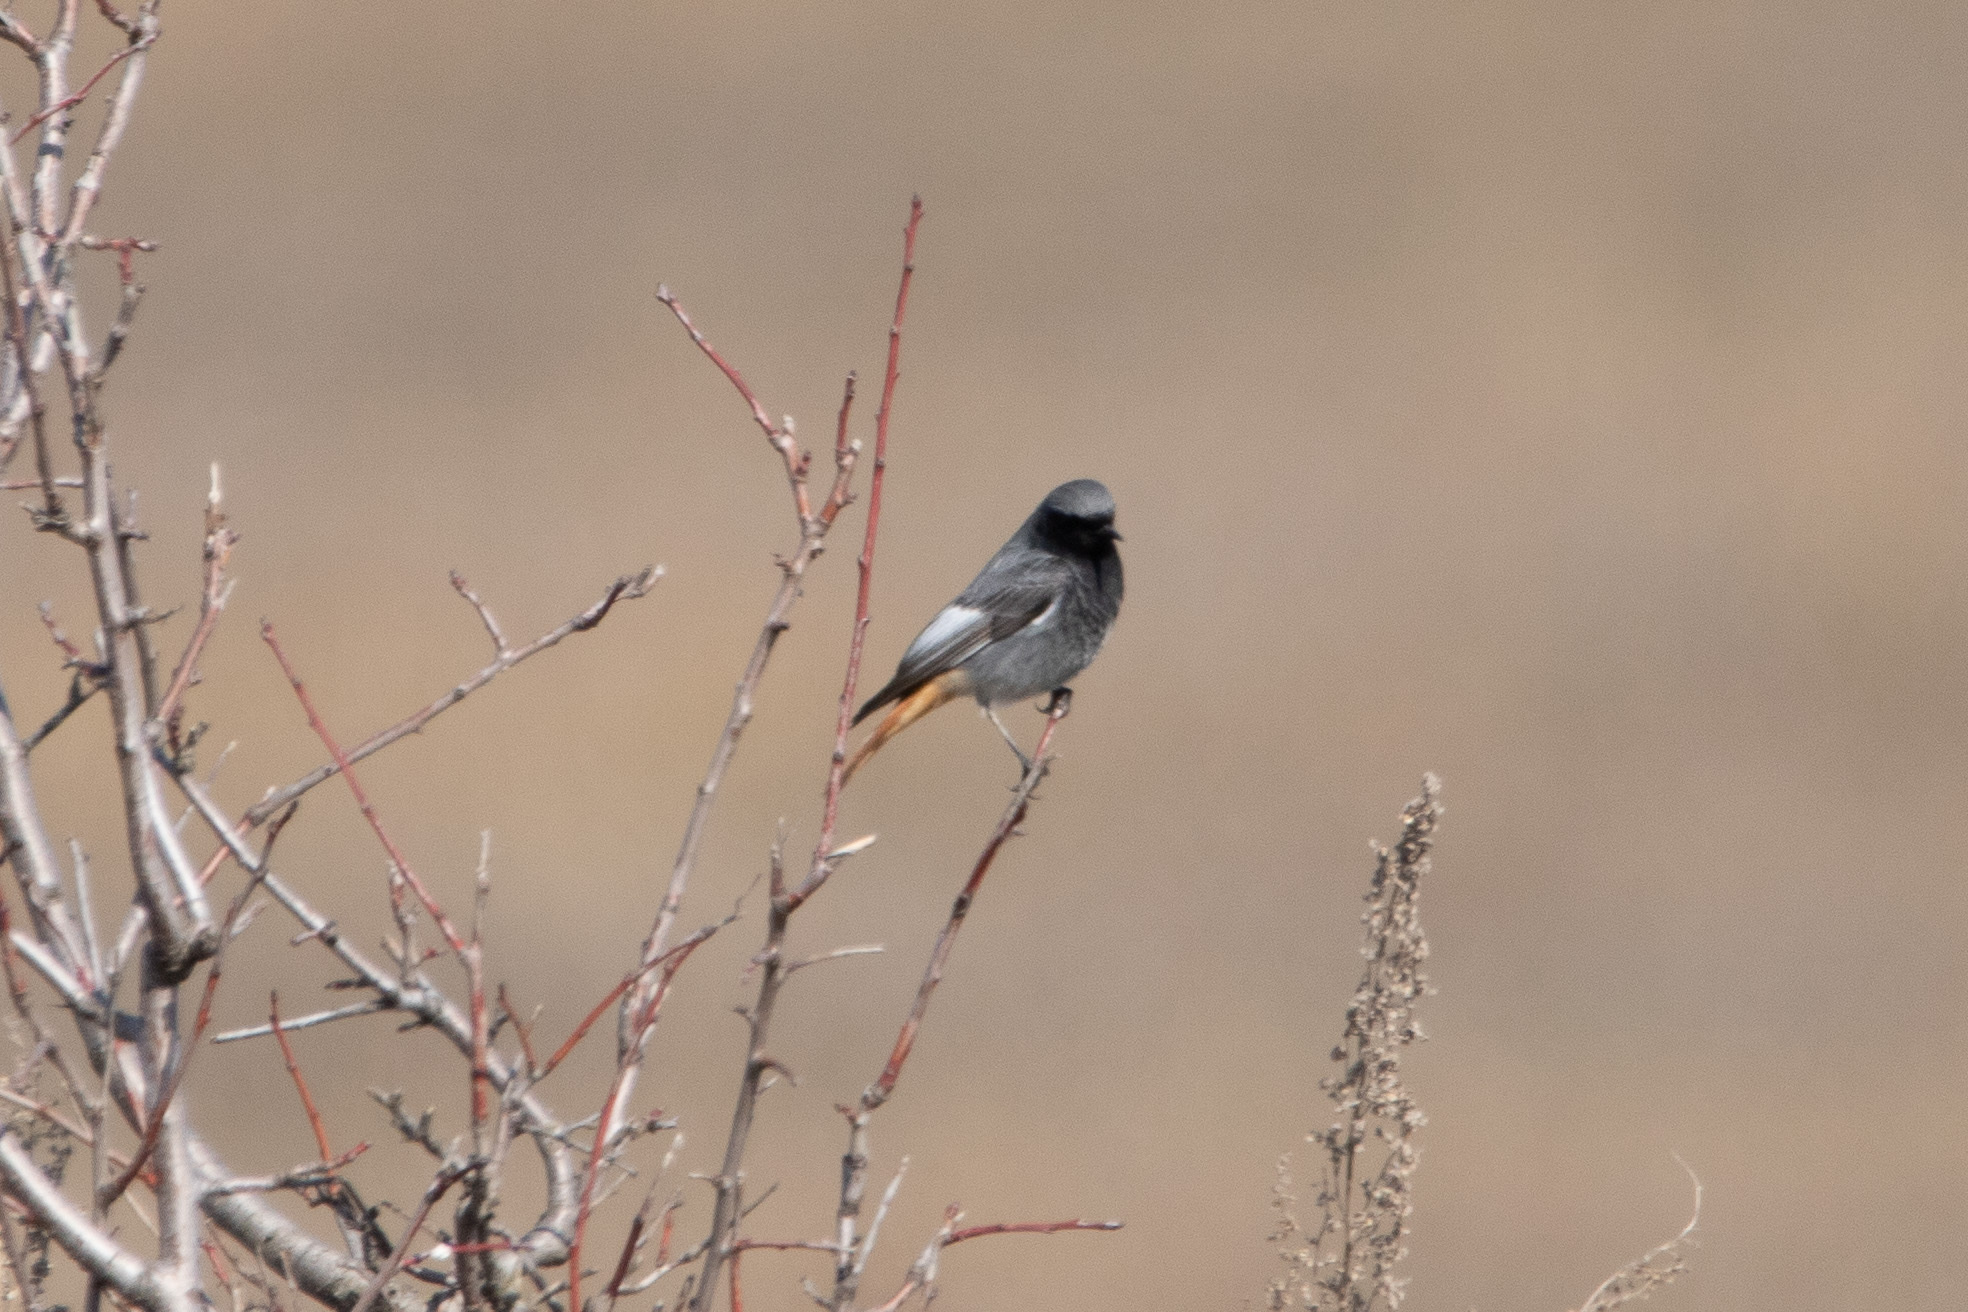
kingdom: Animalia
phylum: Chordata
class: Aves
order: Passeriformes
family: Muscicapidae
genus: Phoenicurus
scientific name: Phoenicurus ochruros
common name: Black redstart
